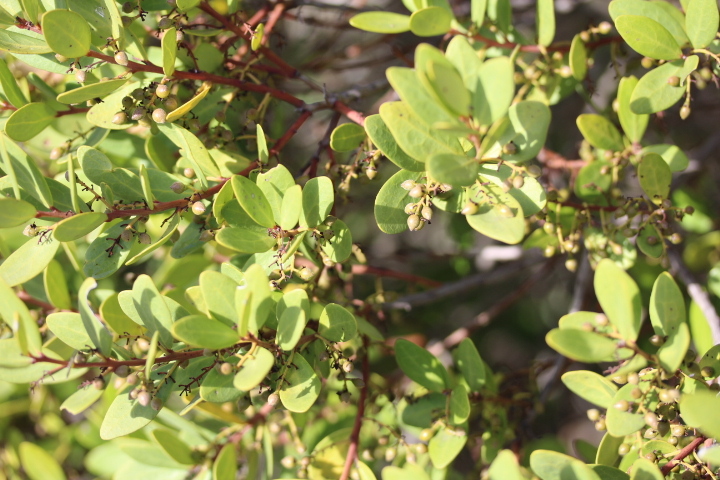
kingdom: Plantae
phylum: Tracheophyta
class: Magnoliopsida
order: Ericales
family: Ebenaceae
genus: Euclea
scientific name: Euclea racemosa
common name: Dune guarri
